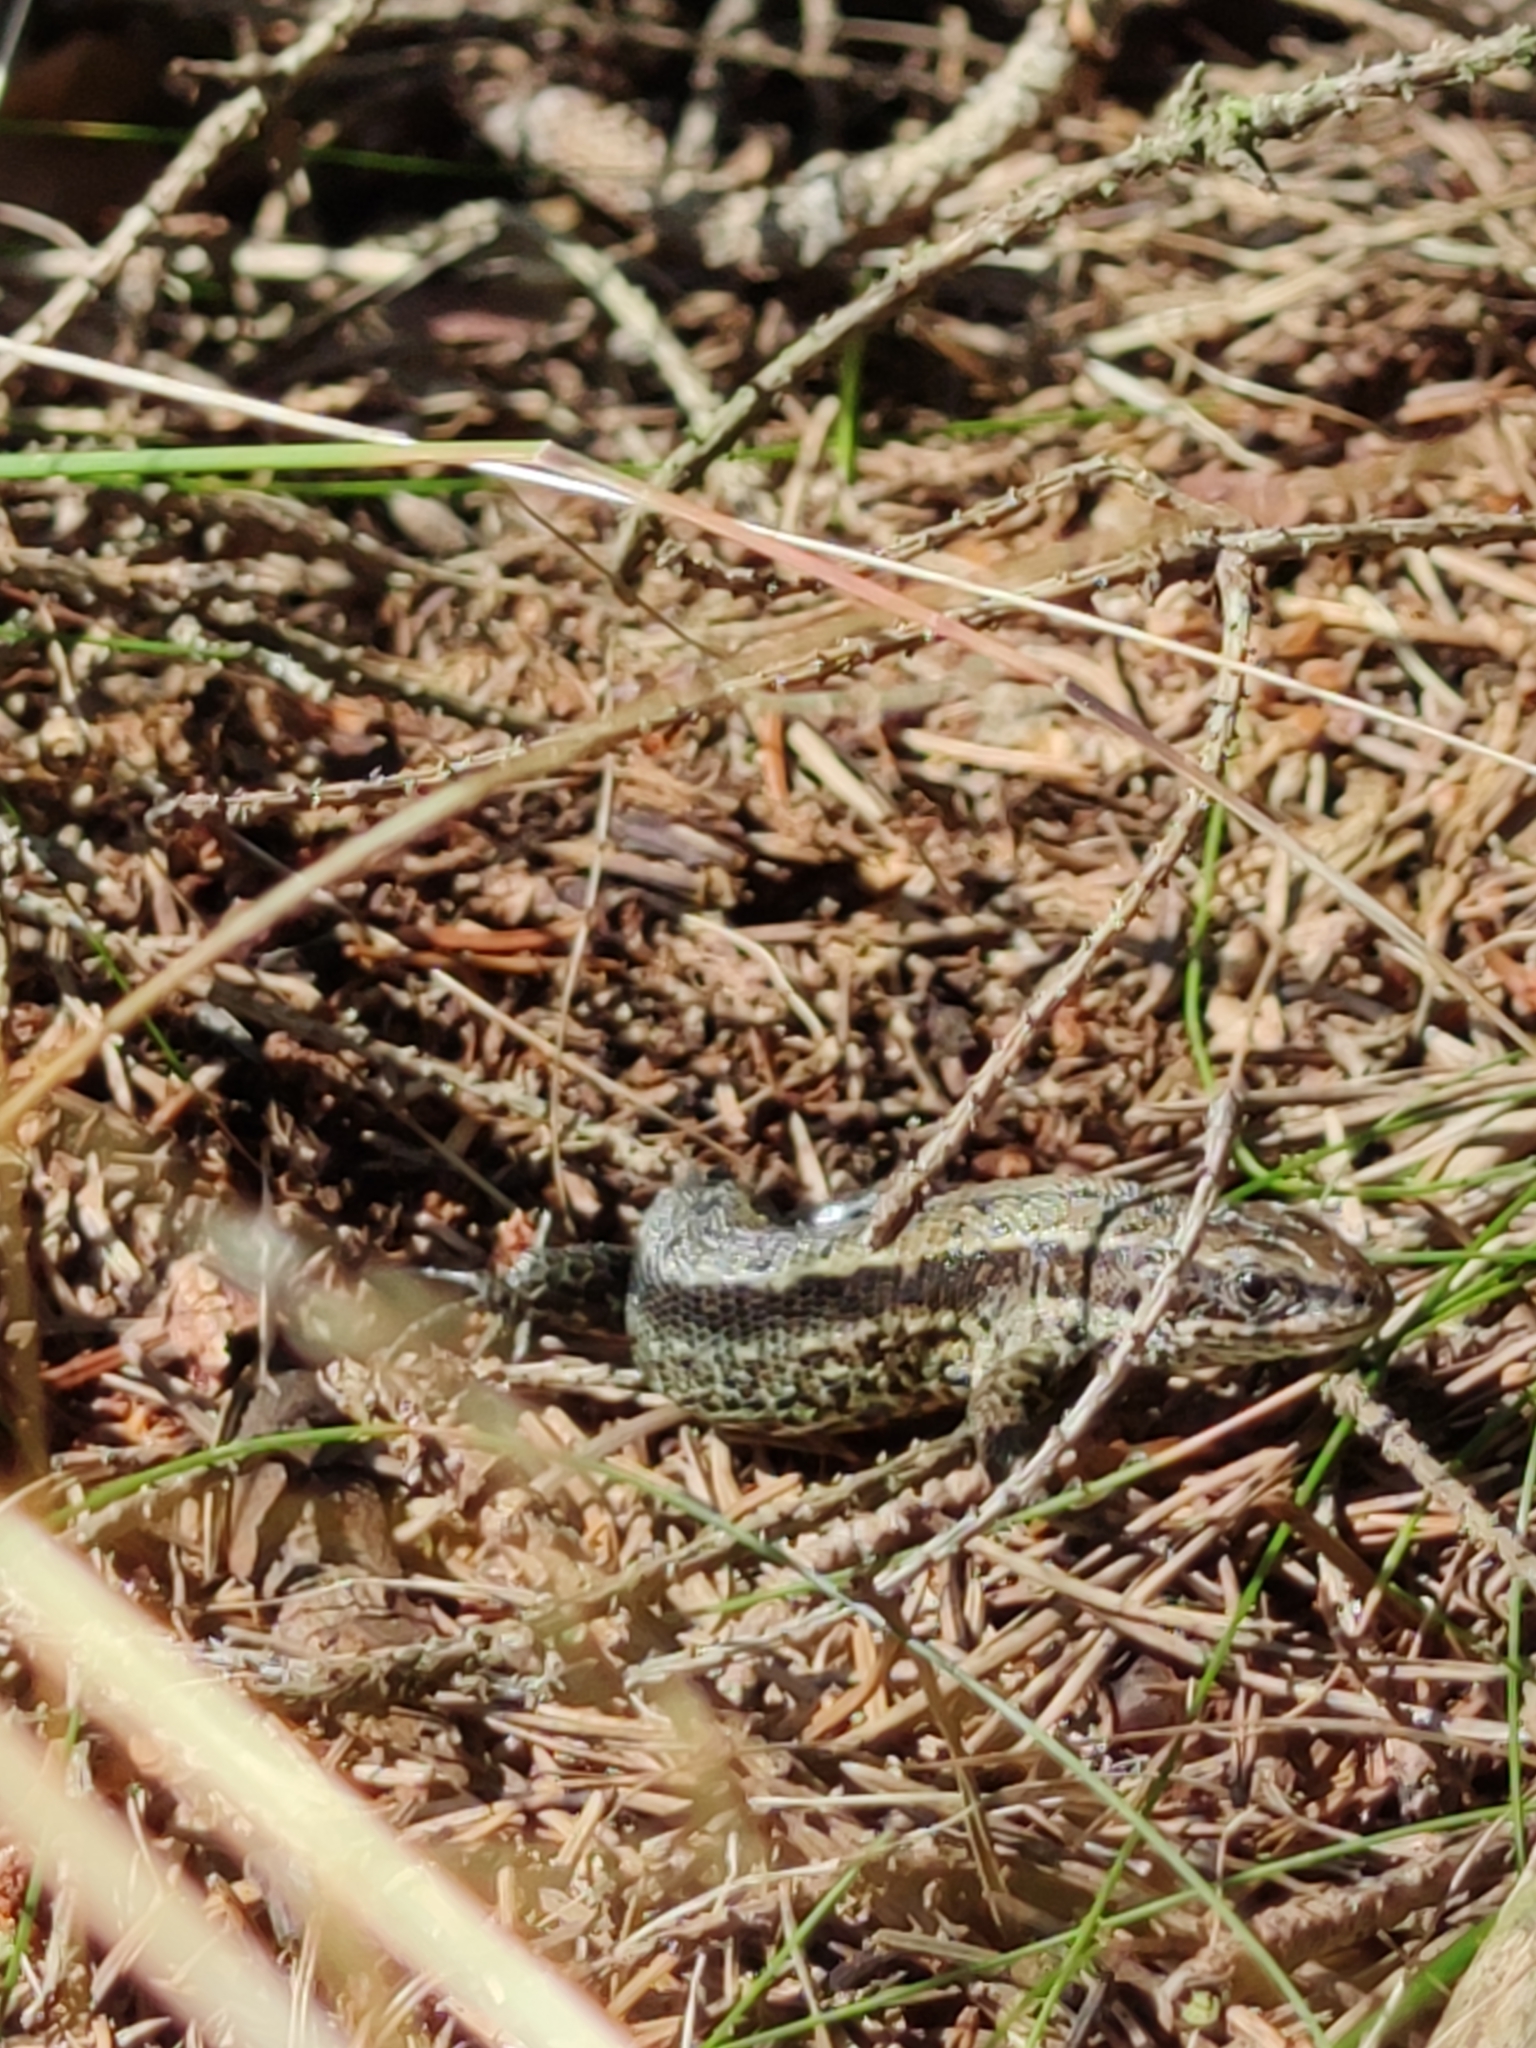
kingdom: Animalia
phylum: Chordata
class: Squamata
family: Lacertidae
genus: Zootoca
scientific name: Zootoca vivipara
